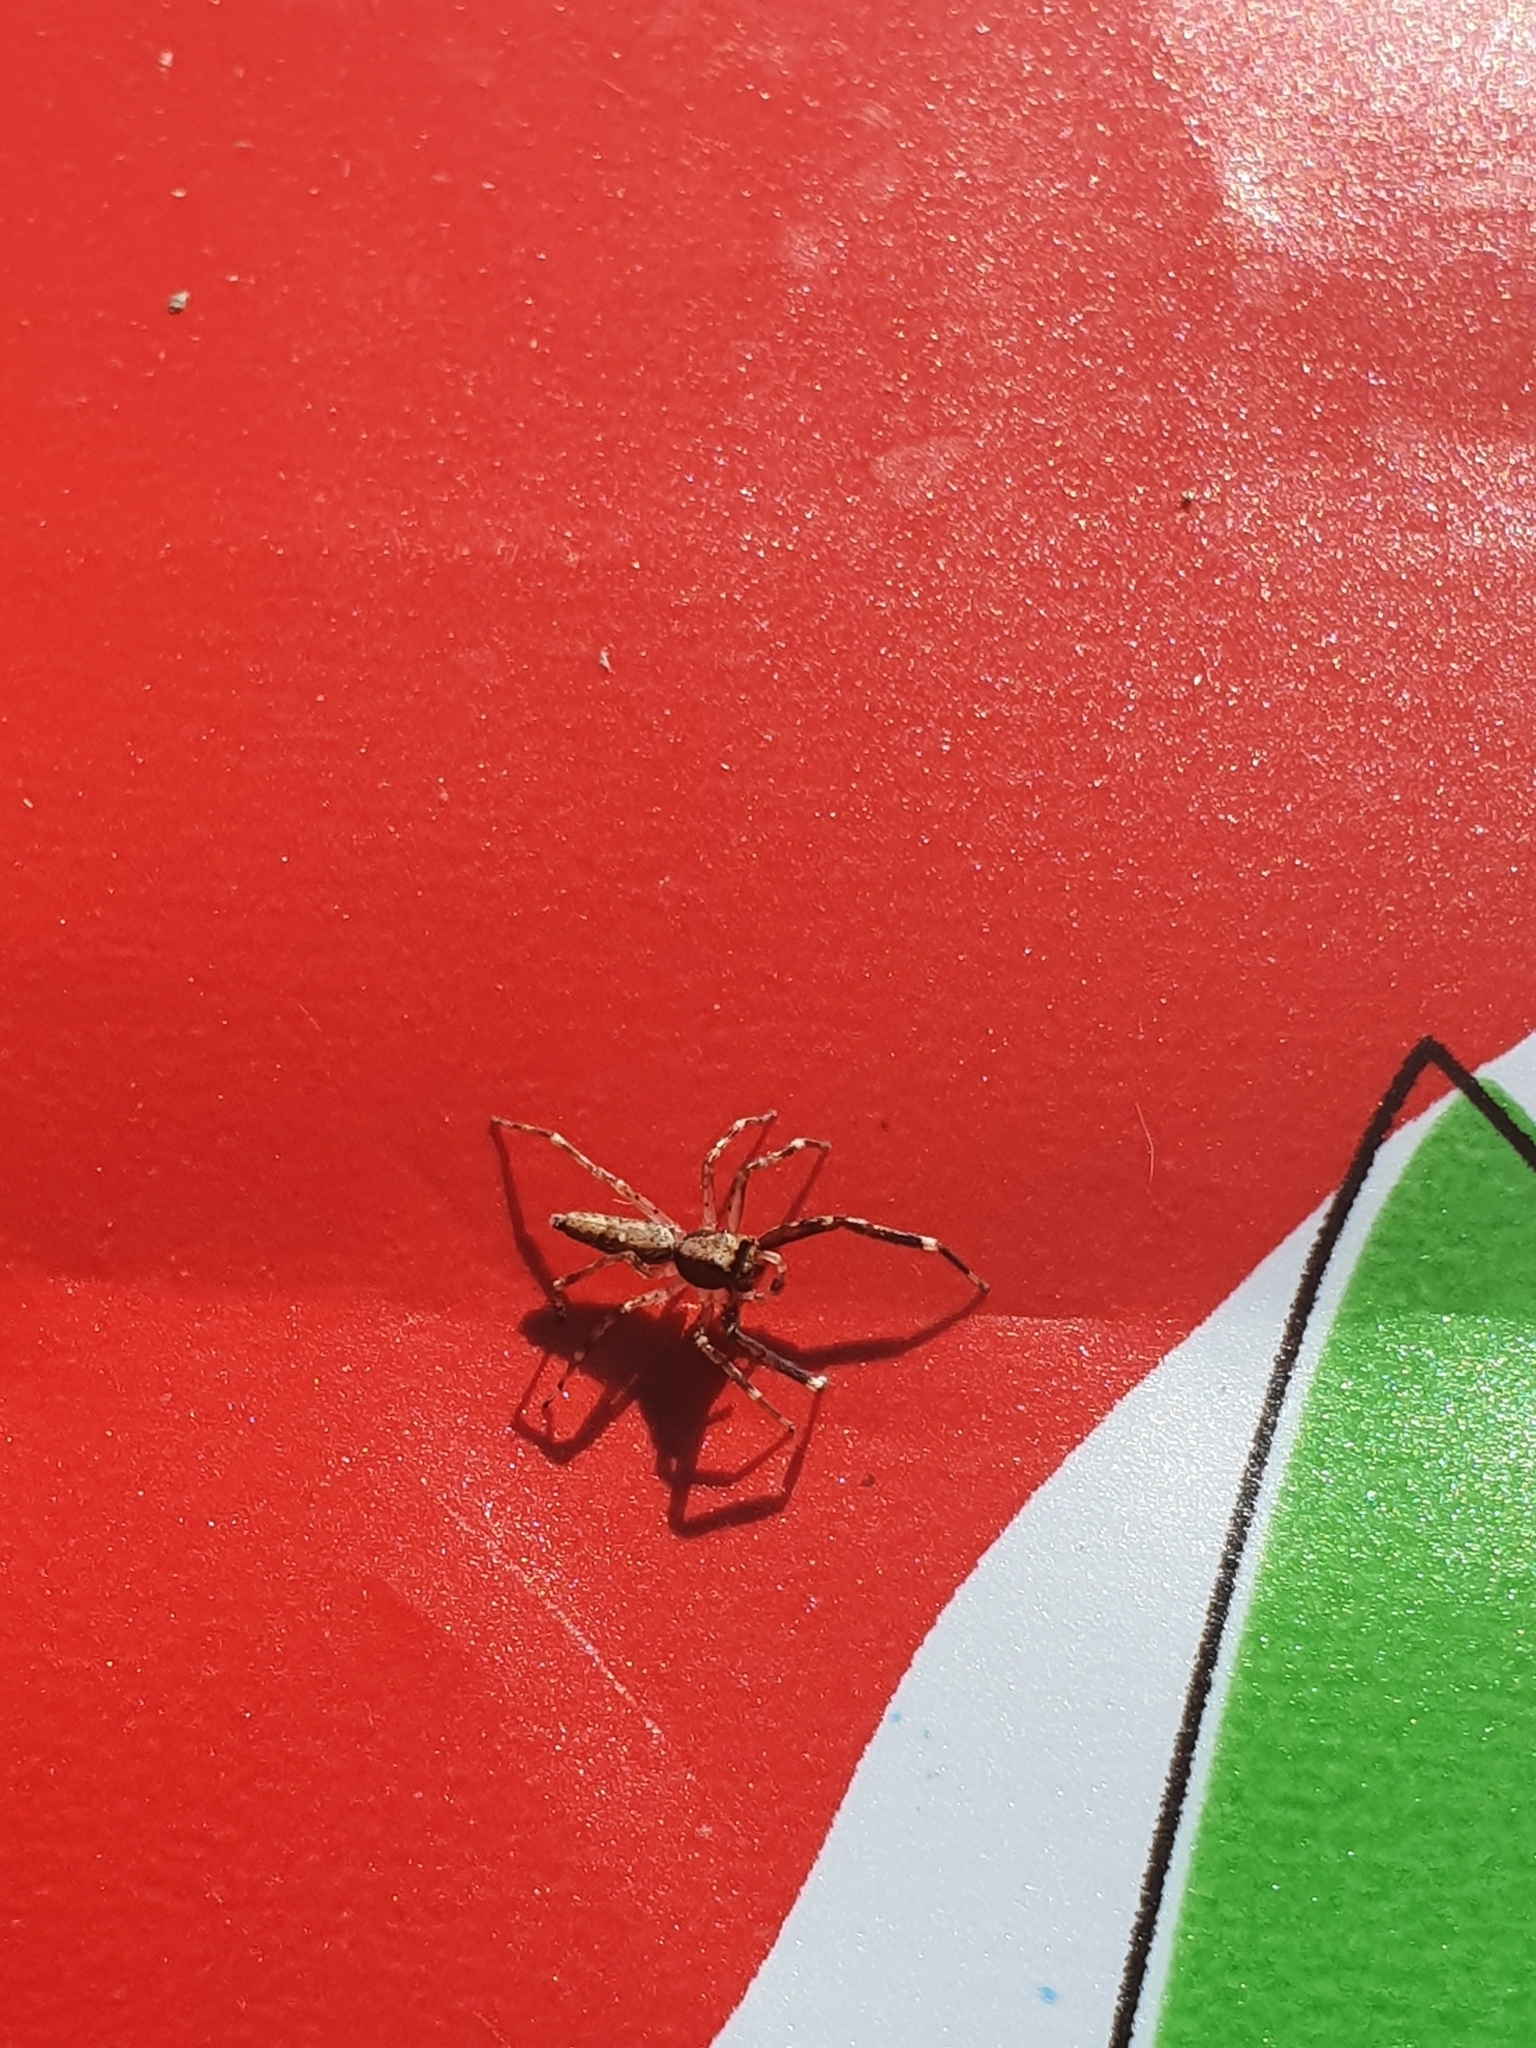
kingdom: Animalia
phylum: Arthropoda
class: Arachnida
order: Araneae
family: Salticidae
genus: Helpis
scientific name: Helpis minitabunda
